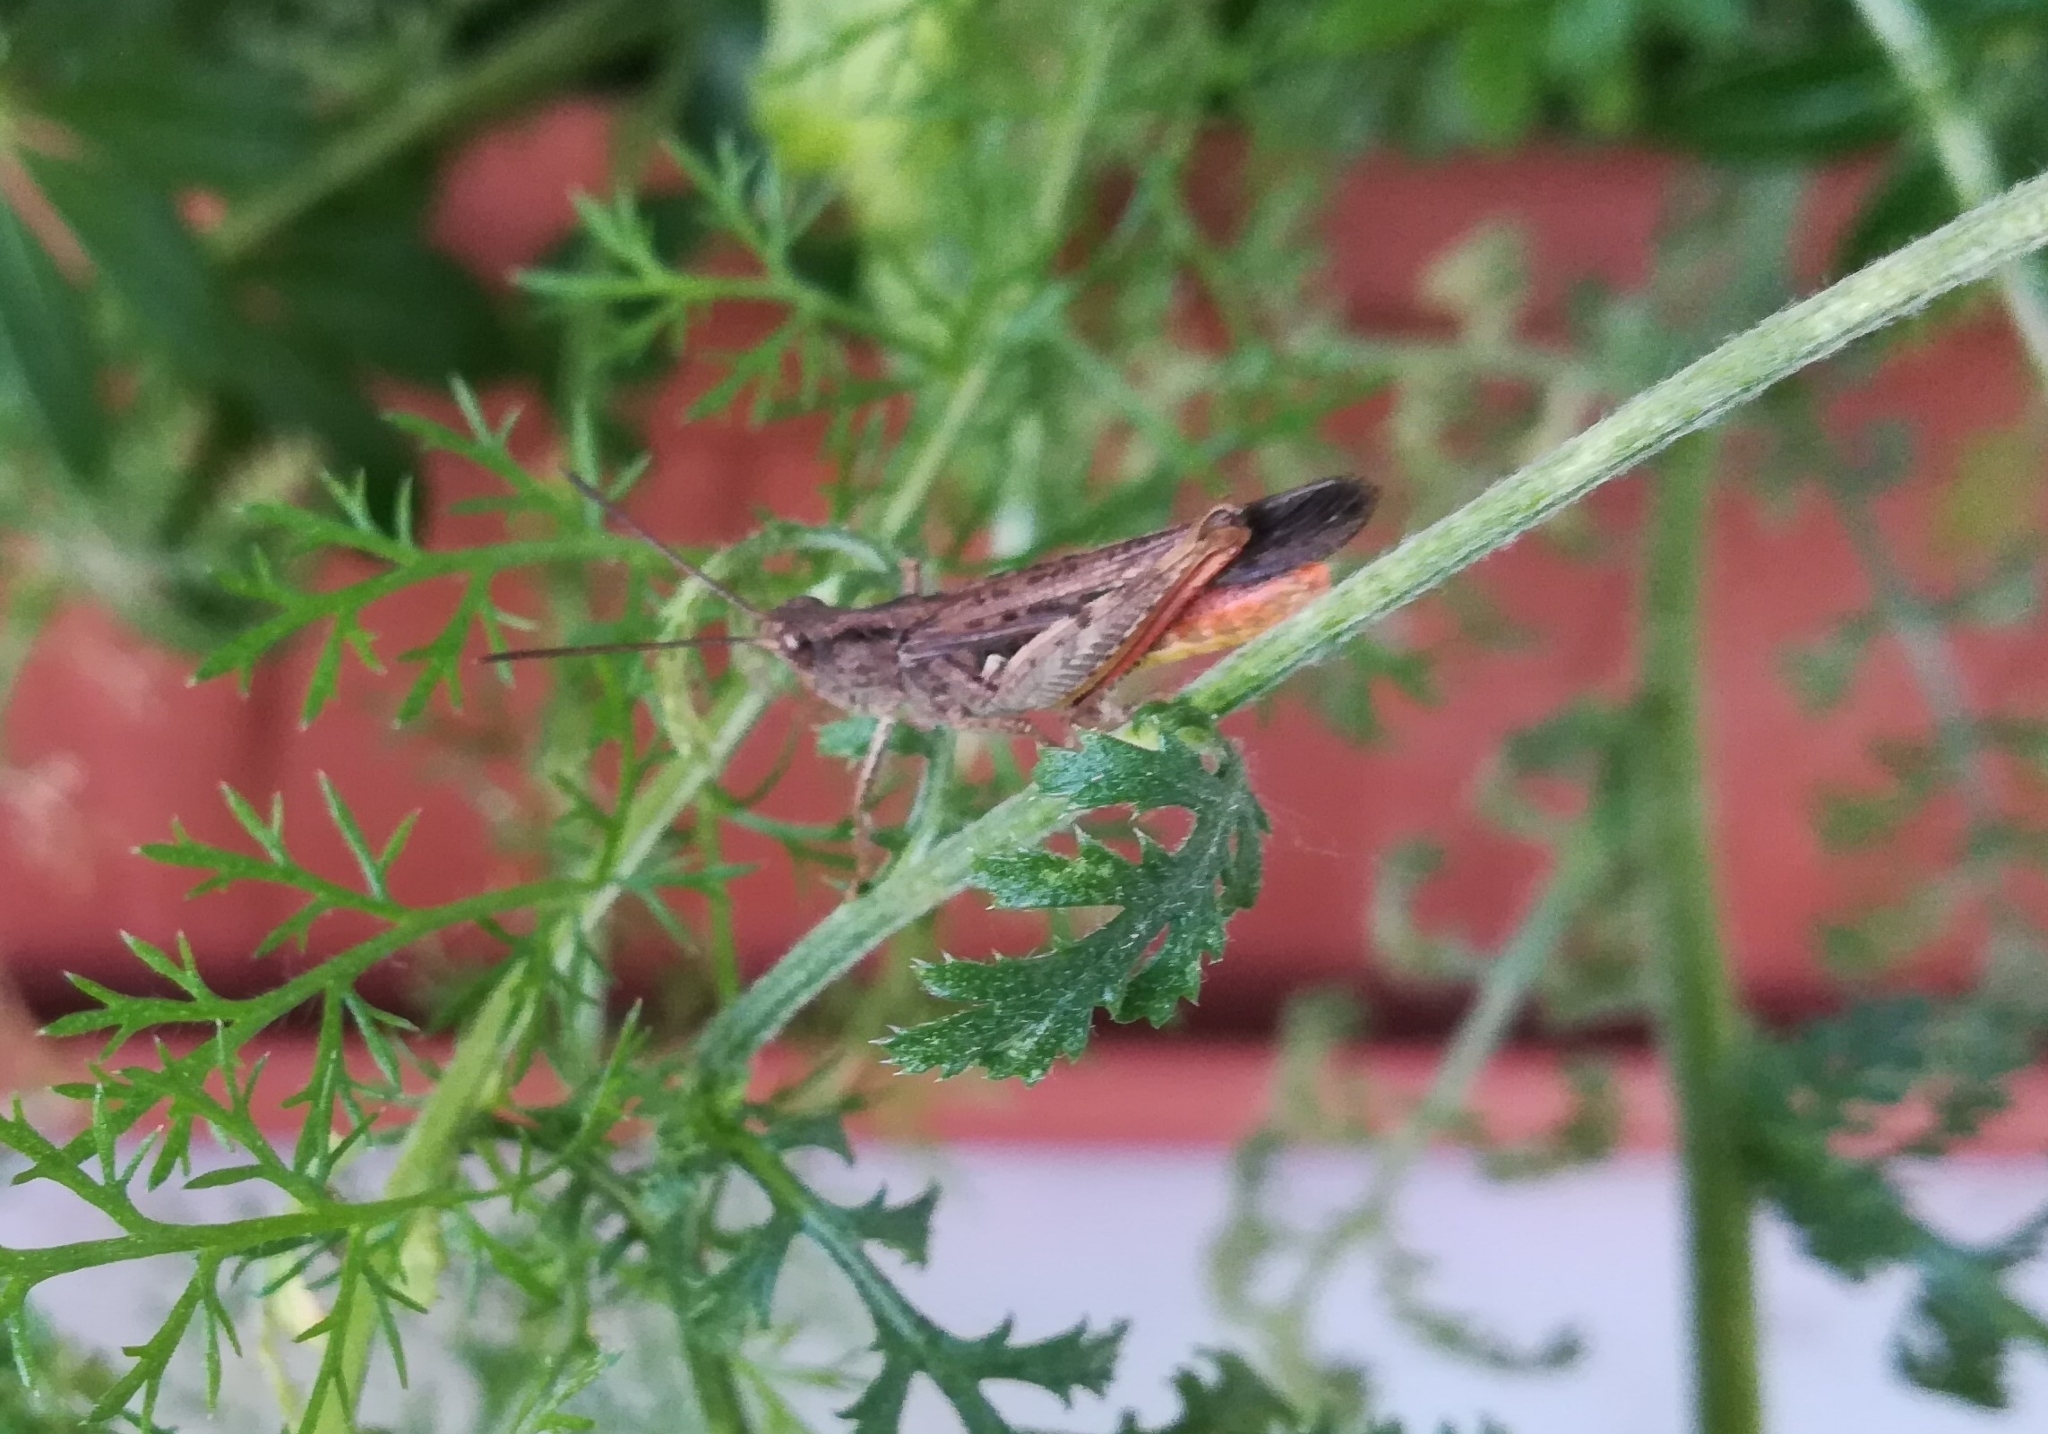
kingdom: Animalia
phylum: Arthropoda
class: Insecta
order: Orthoptera
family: Acrididae
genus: Chorthippus
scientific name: Chorthippus brunneus
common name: Field grasshopper
